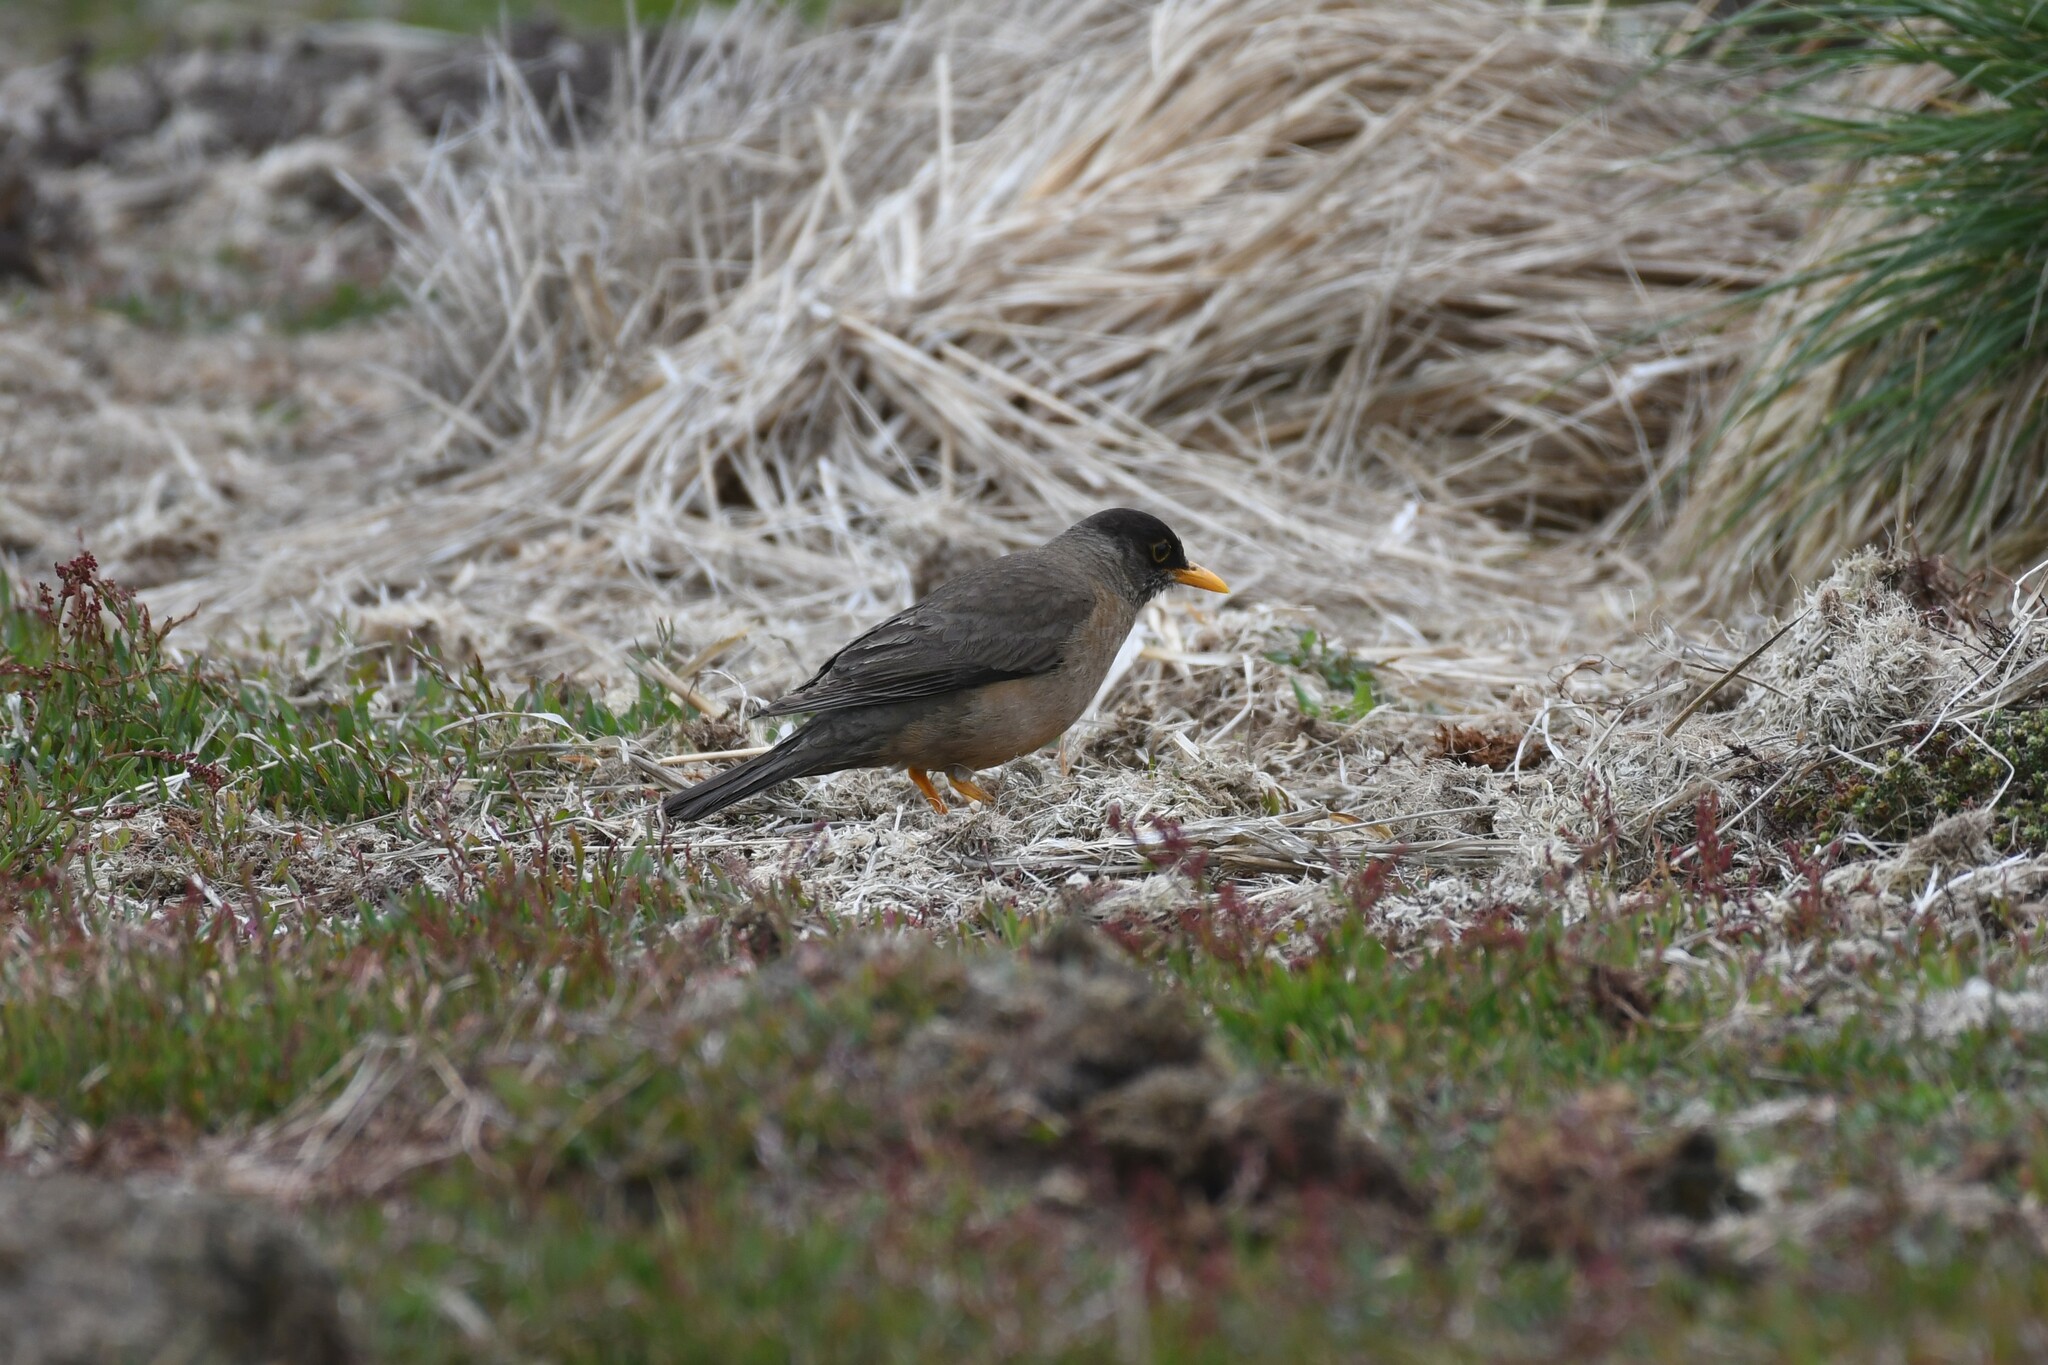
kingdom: Animalia
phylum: Chordata
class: Aves
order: Passeriformes
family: Turdidae
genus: Turdus
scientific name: Turdus falcklandii
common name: Austral thrush
